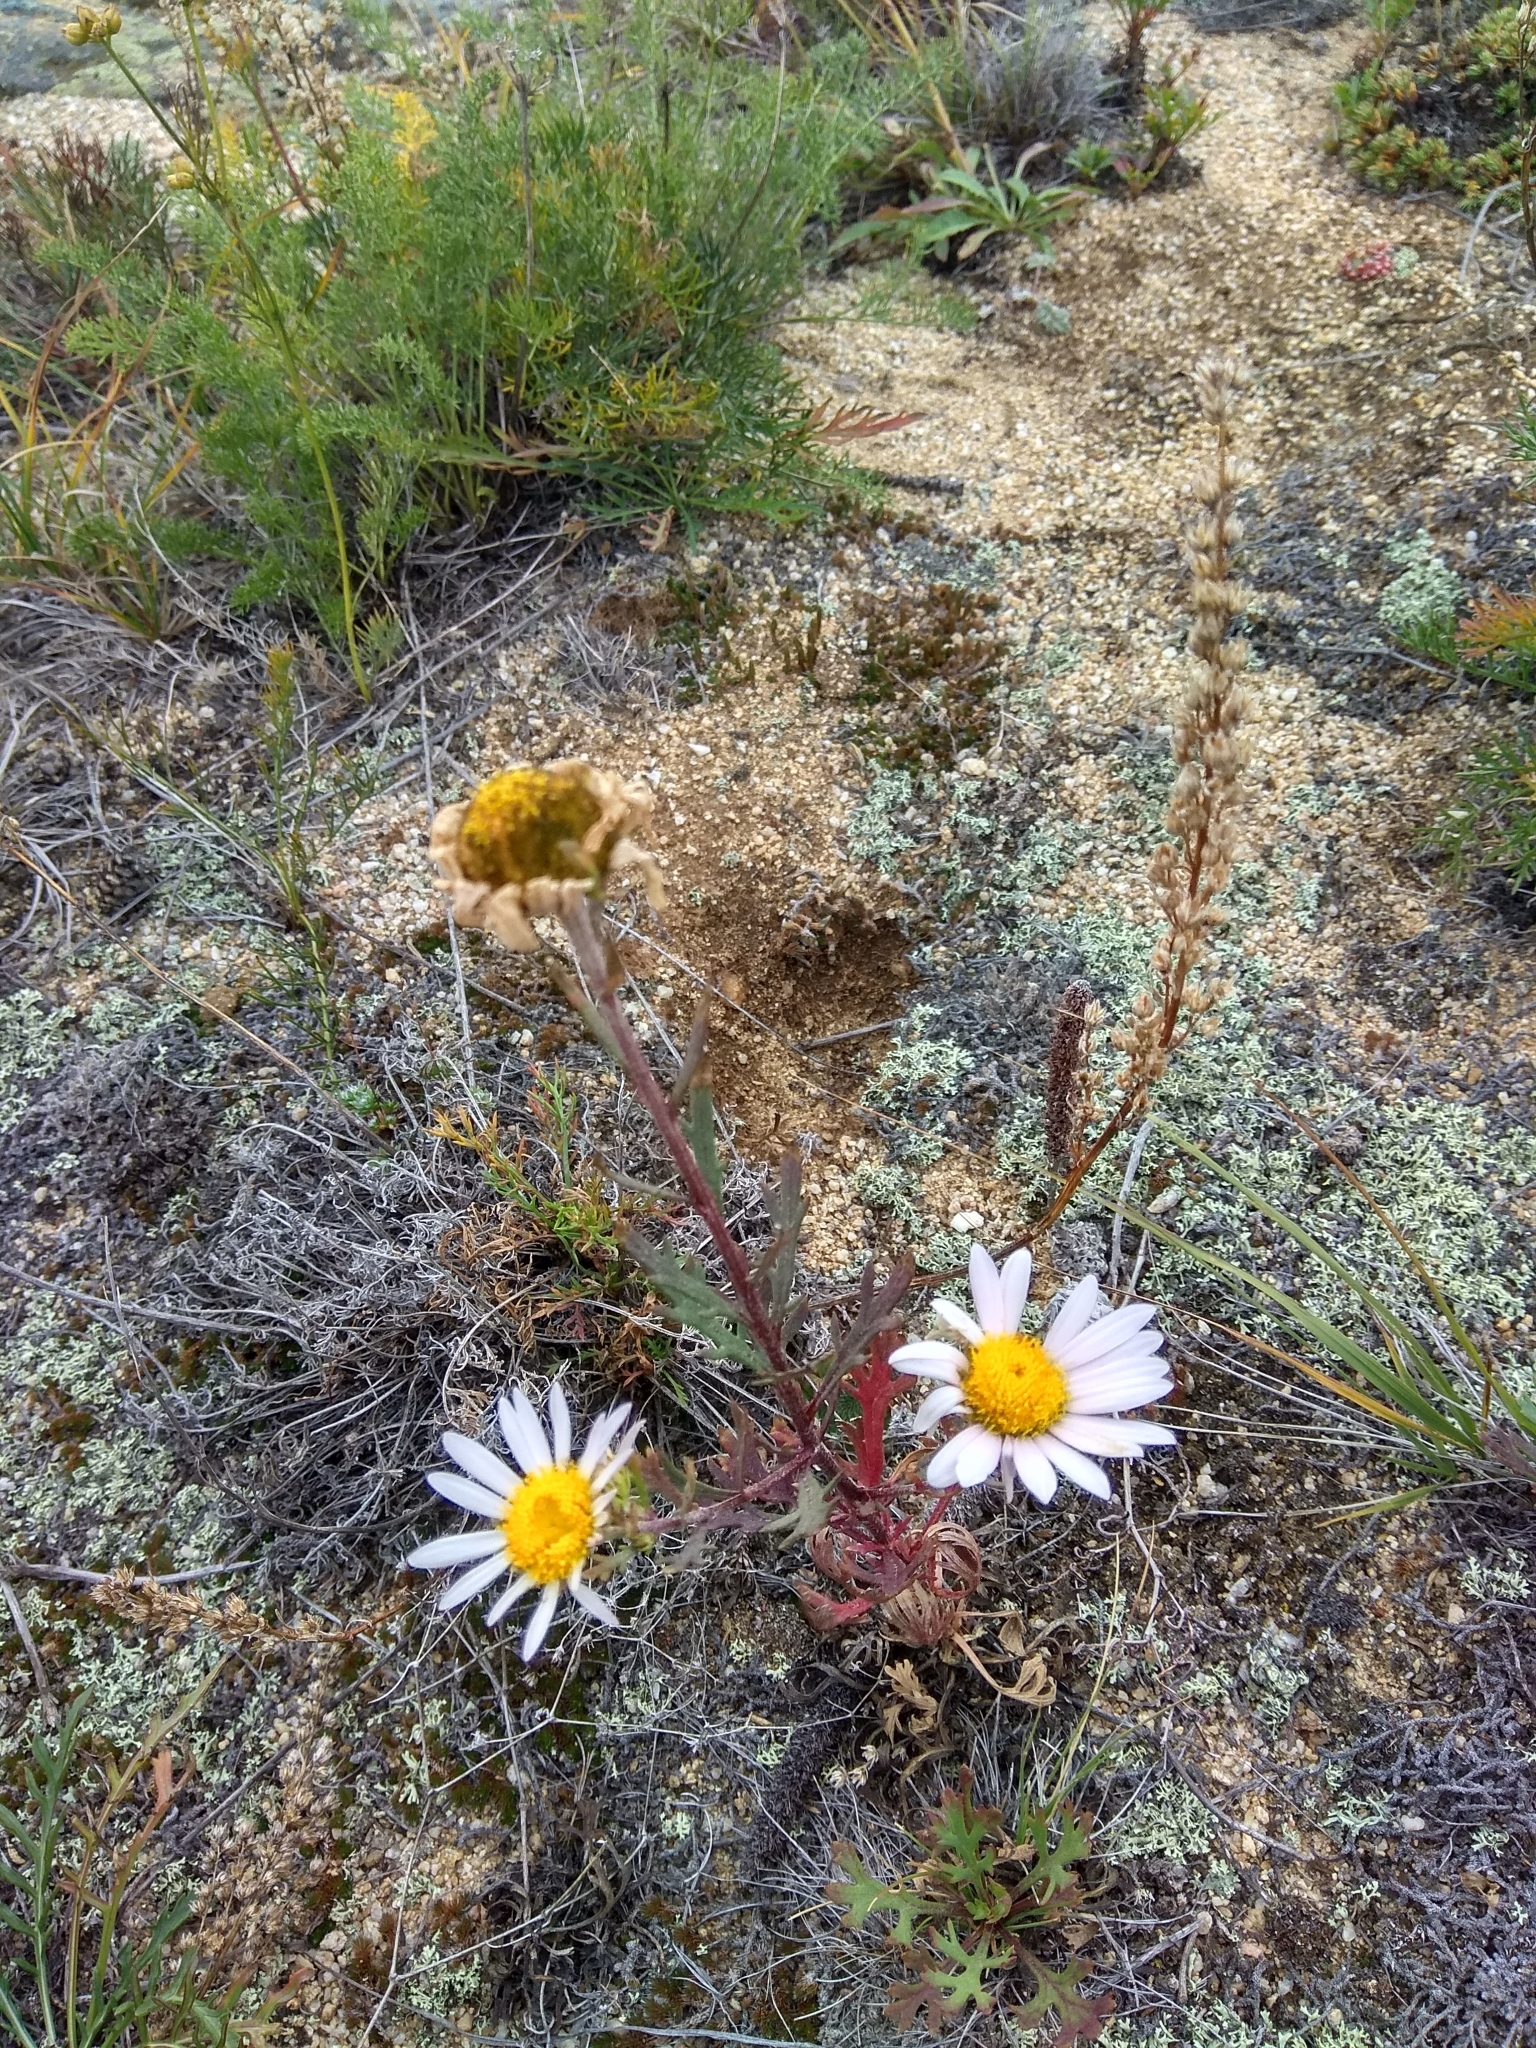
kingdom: Plantae
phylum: Tracheophyta
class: Magnoliopsida
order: Asterales
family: Asteraceae
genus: Chrysanthemum
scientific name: Chrysanthemum zawadzkii
